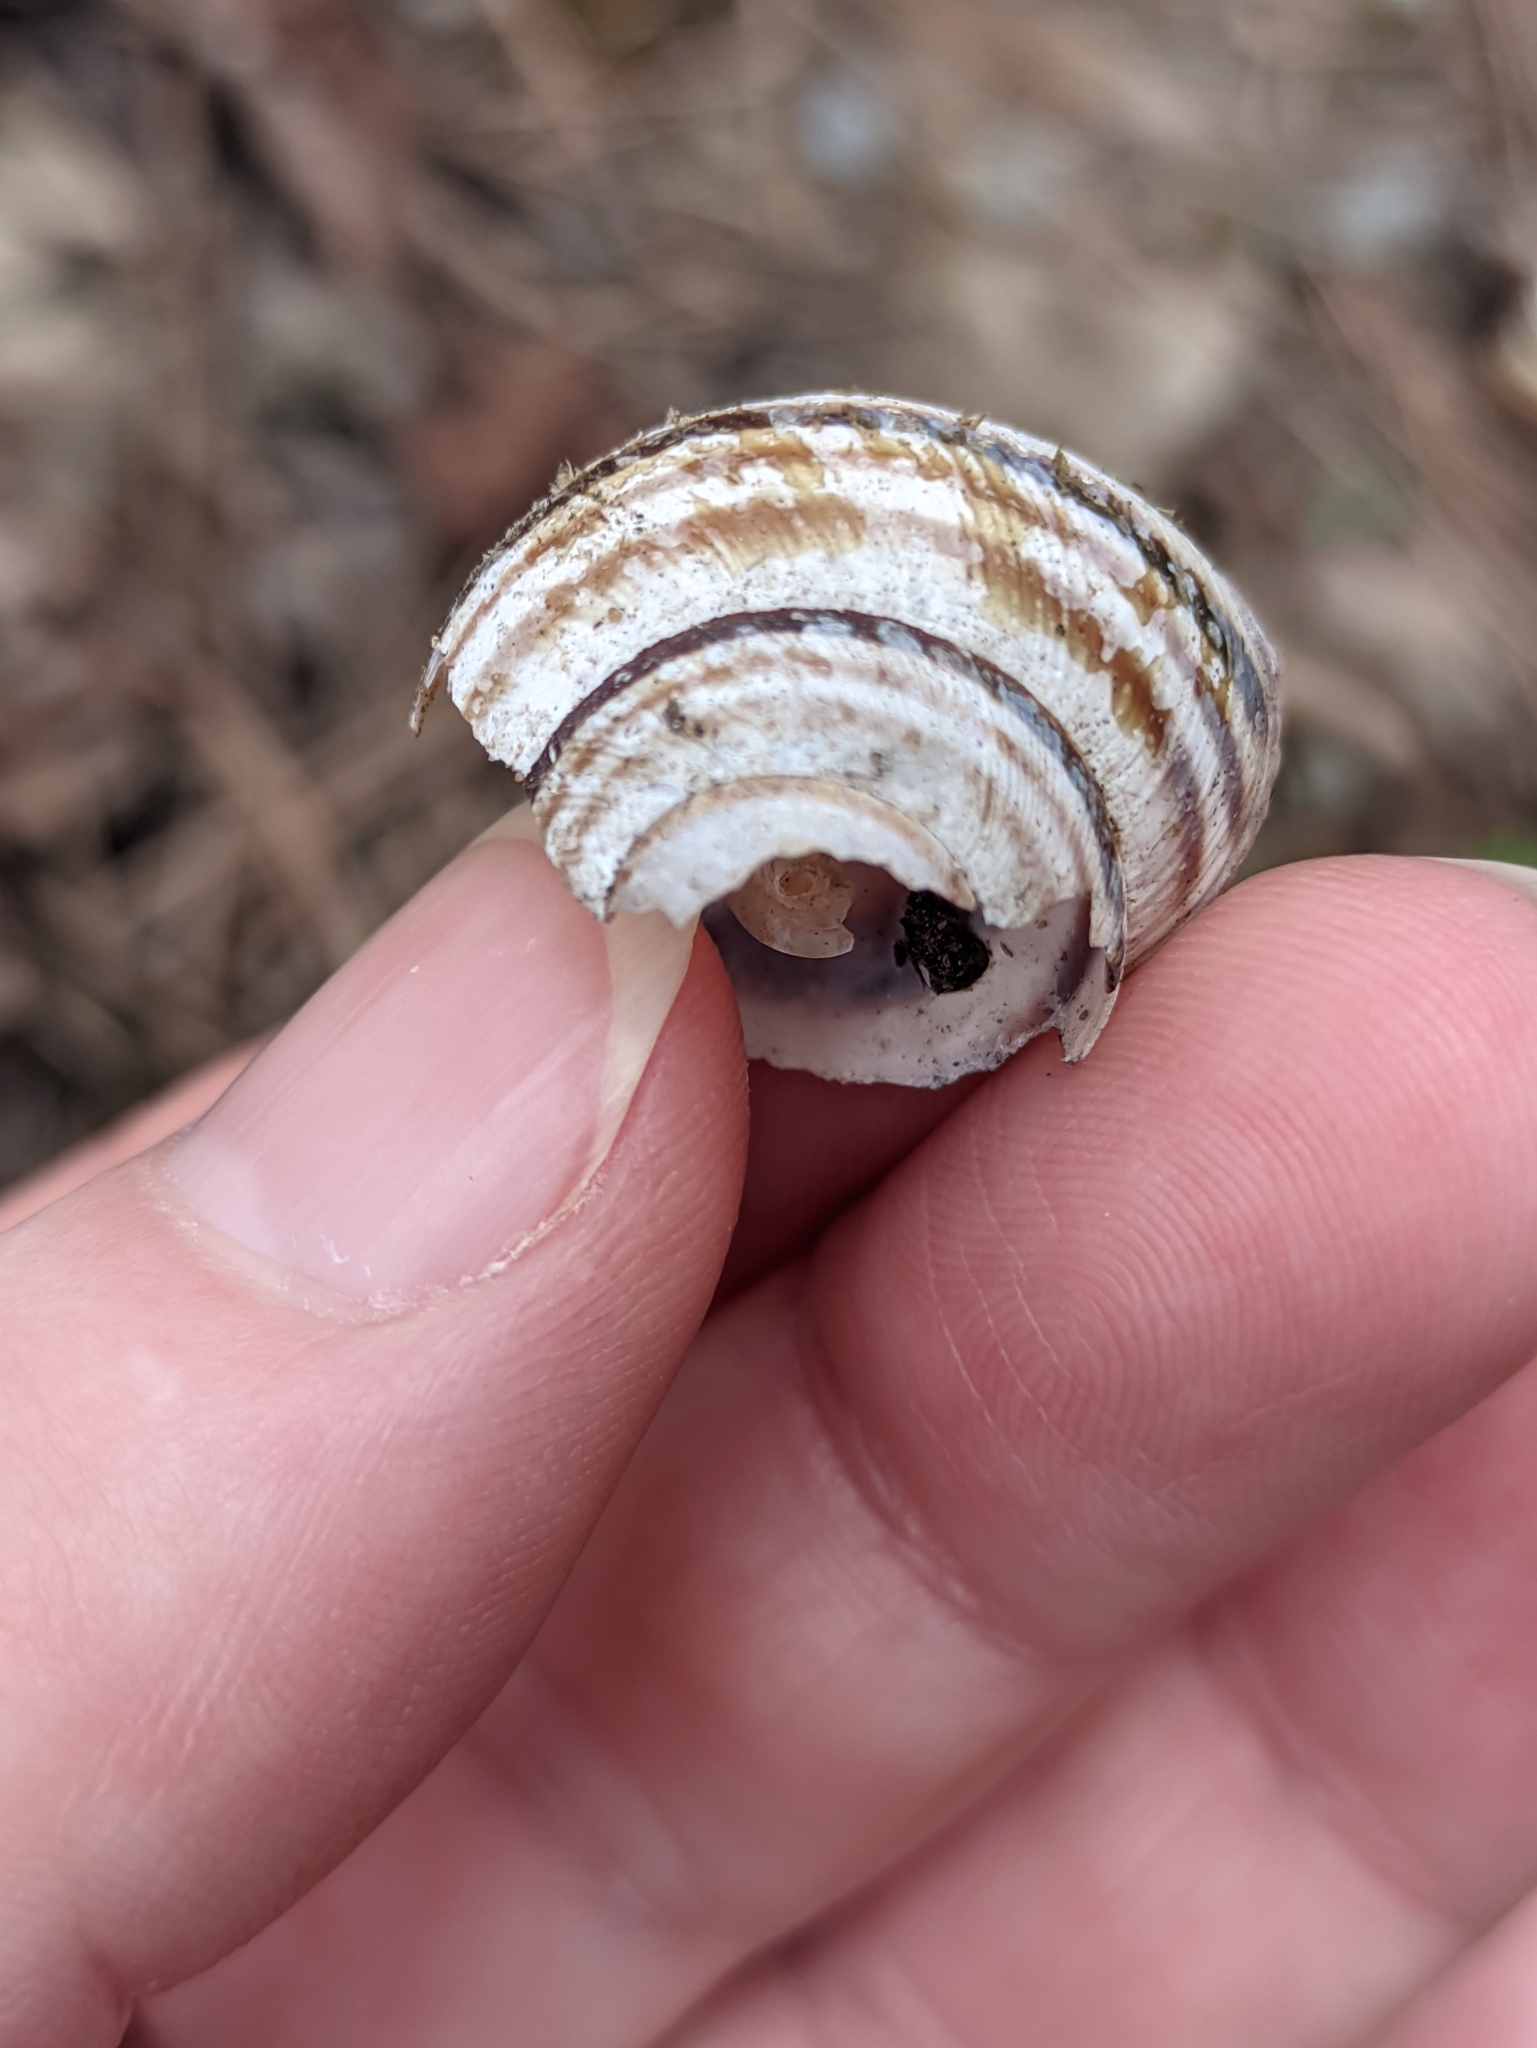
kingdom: Animalia
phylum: Mollusca
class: Gastropoda
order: Stylommatophora
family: Helicidae
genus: Caucasotachea
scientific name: Caucasotachea vindobonensis
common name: European helicid land snail
